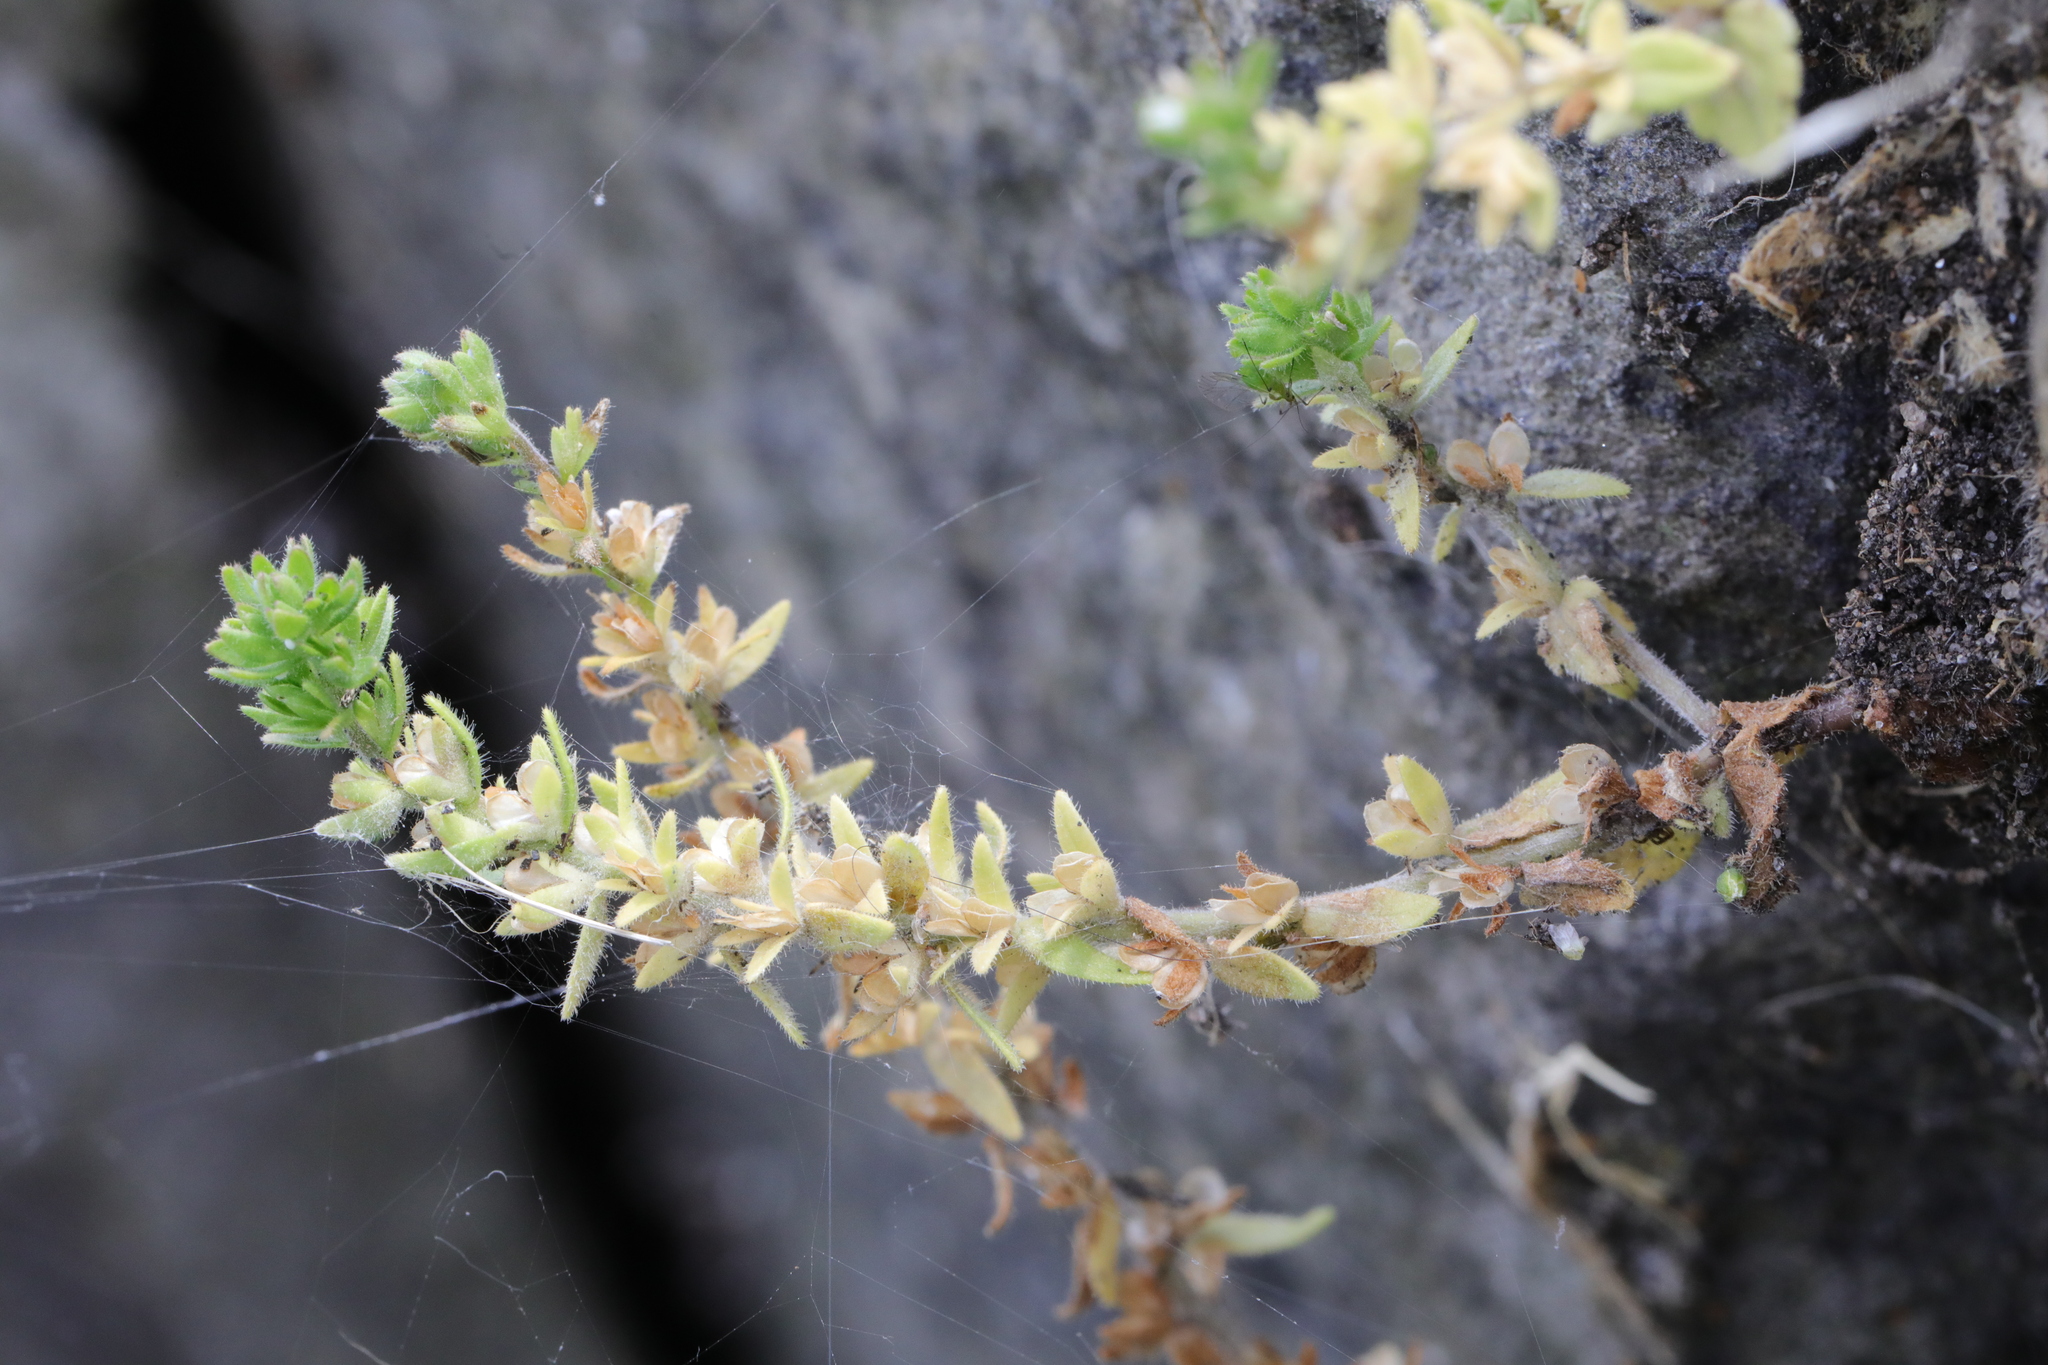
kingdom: Plantae
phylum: Tracheophyta
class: Magnoliopsida
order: Lamiales
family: Plantaginaceae
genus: Veronica
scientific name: Veronica arvensis
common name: Corn speedwell
